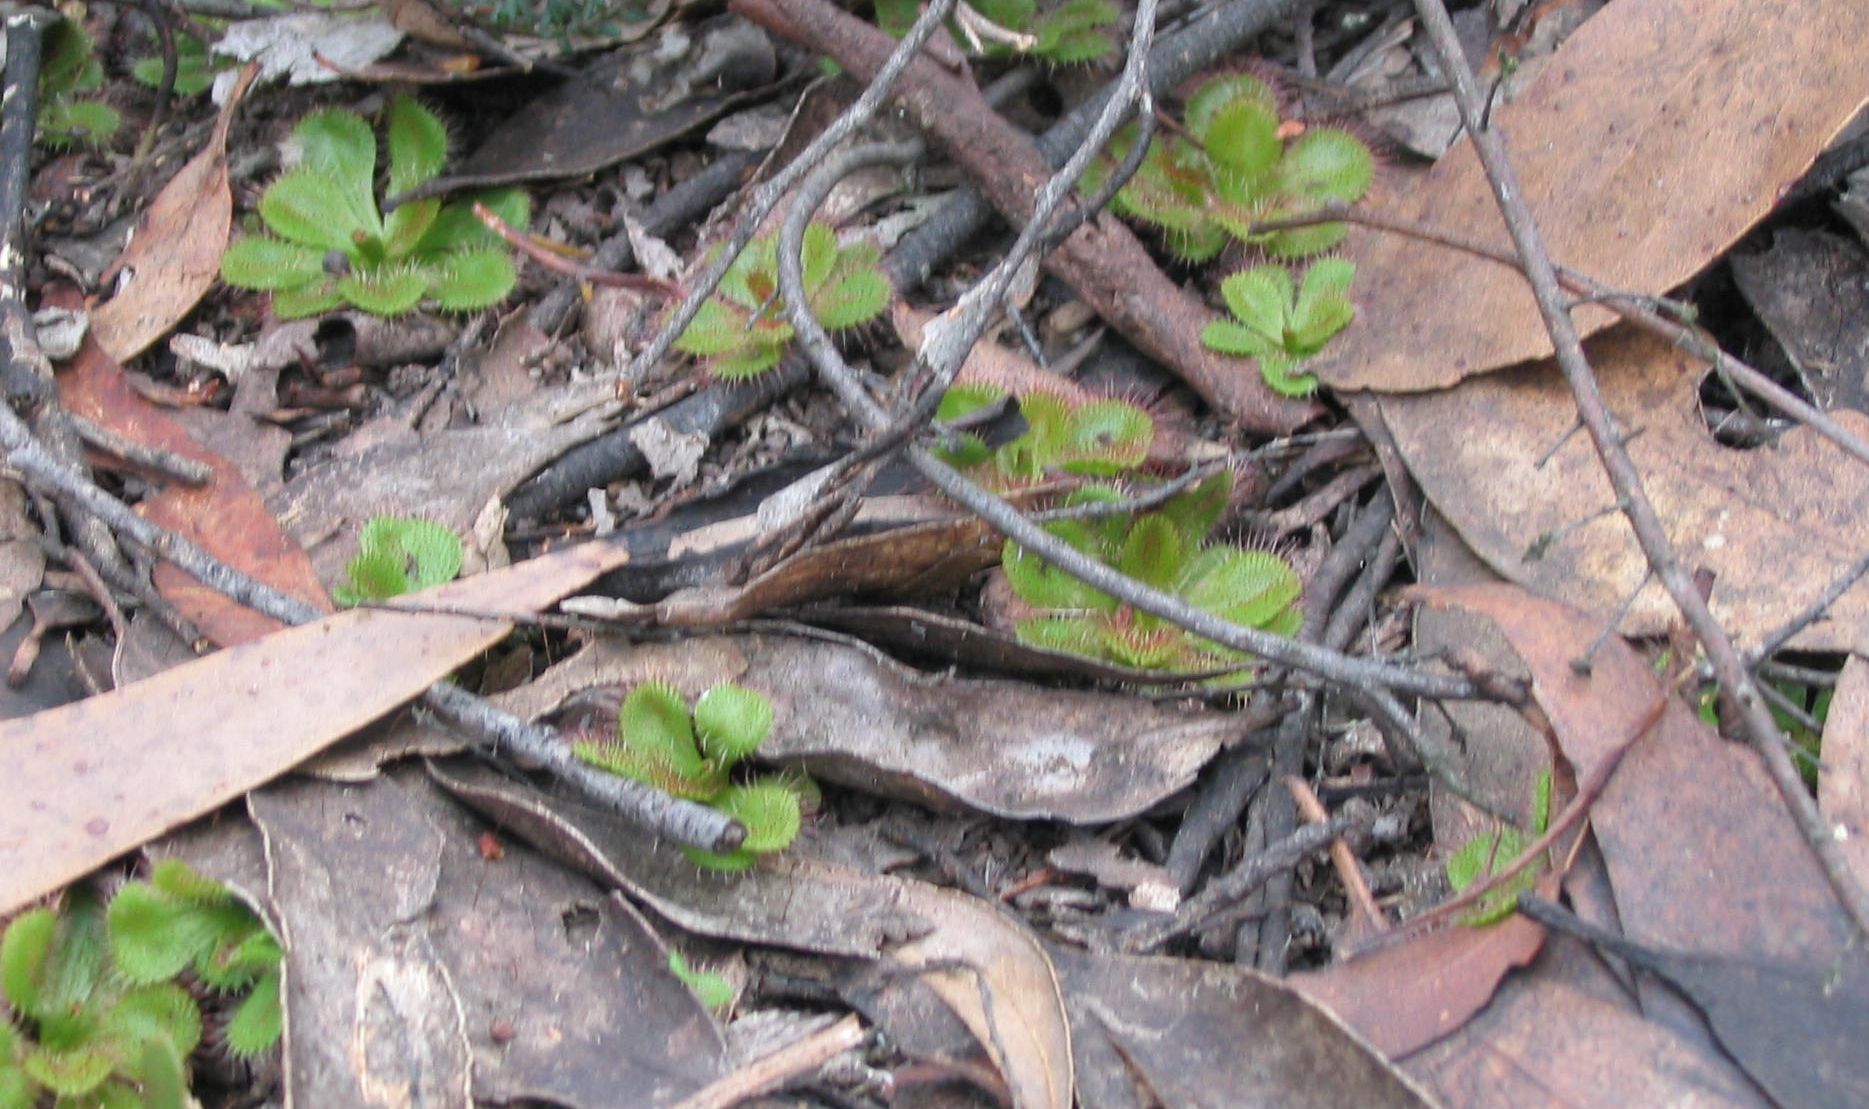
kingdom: Plantae
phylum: Tracheophyta
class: Magnoliopsida
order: Caryophyllales
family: Droseraceae
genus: Drosera
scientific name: Drosera aberrans
